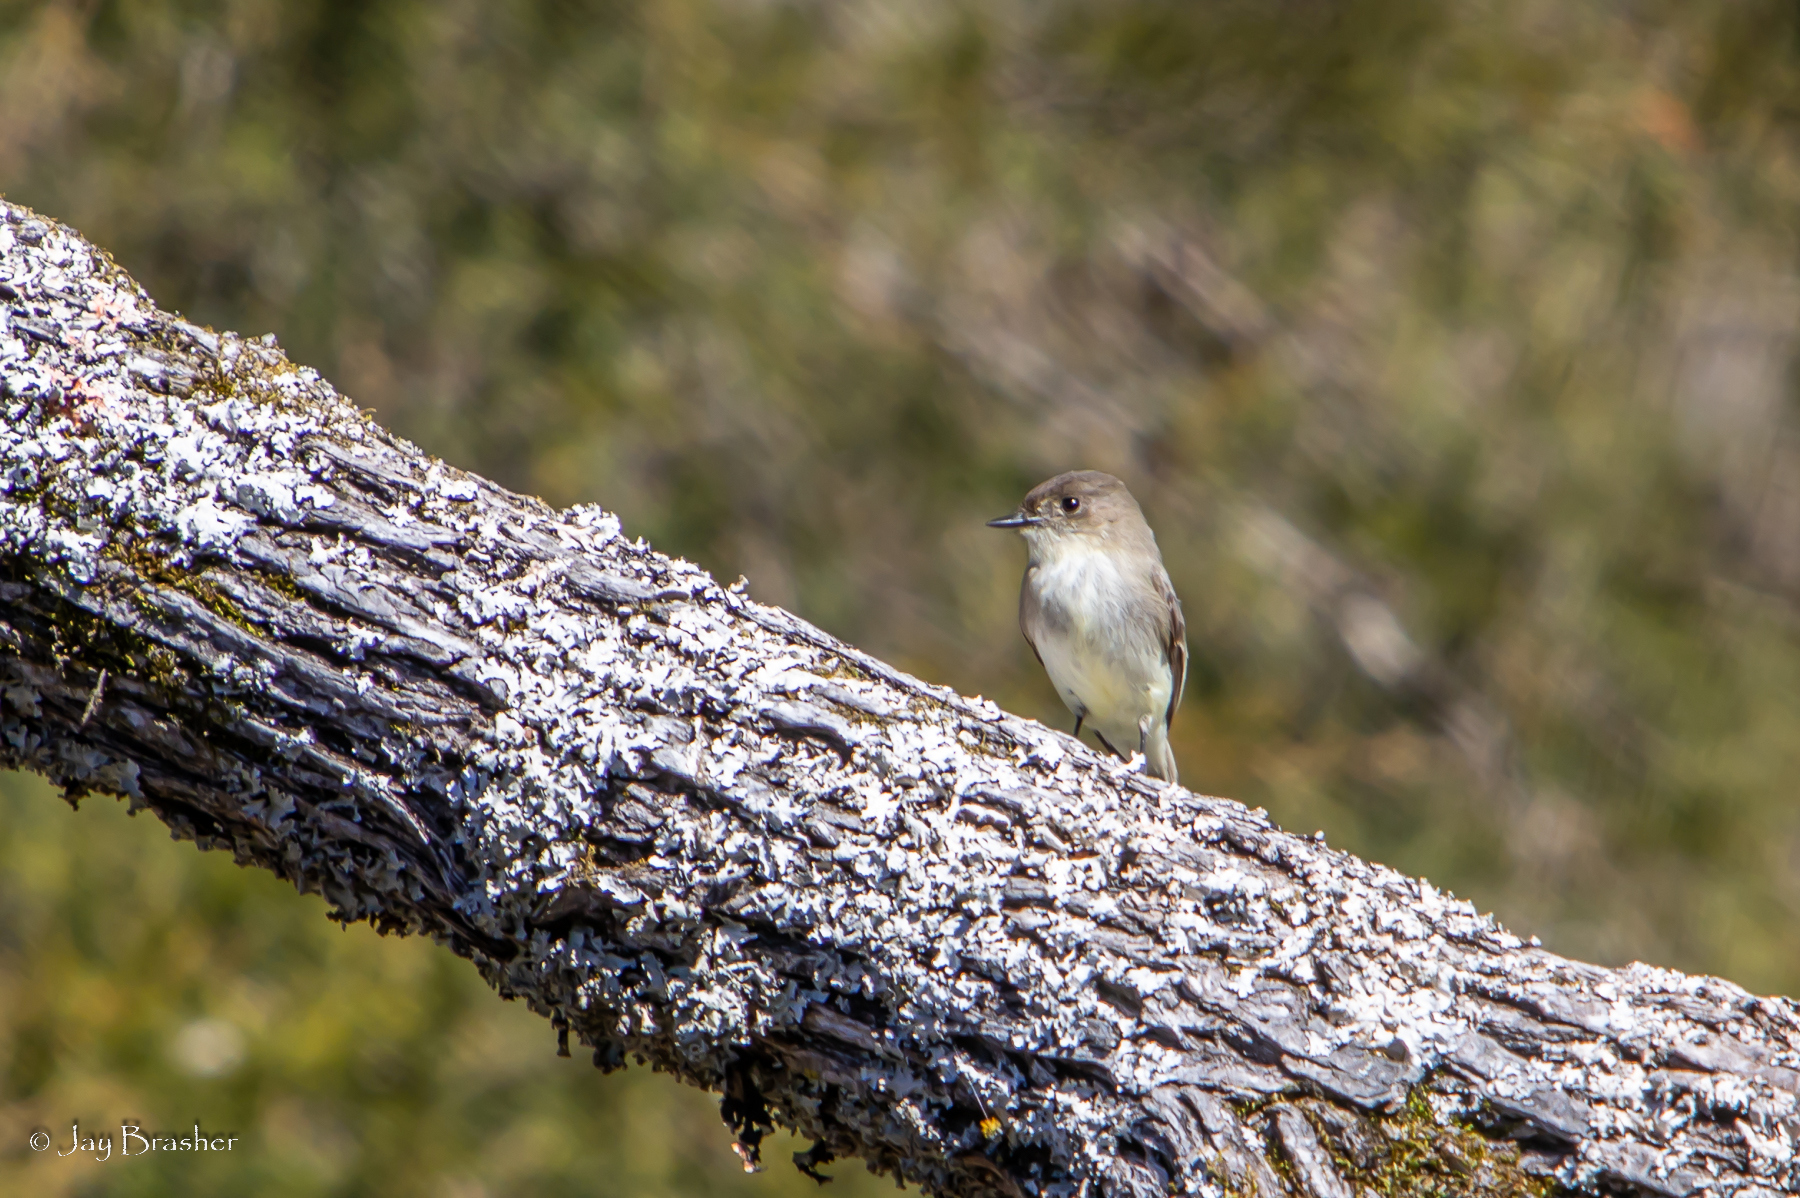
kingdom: Animalia
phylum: Chordata
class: Aves
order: Passeriformes
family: Tyrannidae
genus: Sayornis
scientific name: Sayornis phoebe
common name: Eastern phoebe
